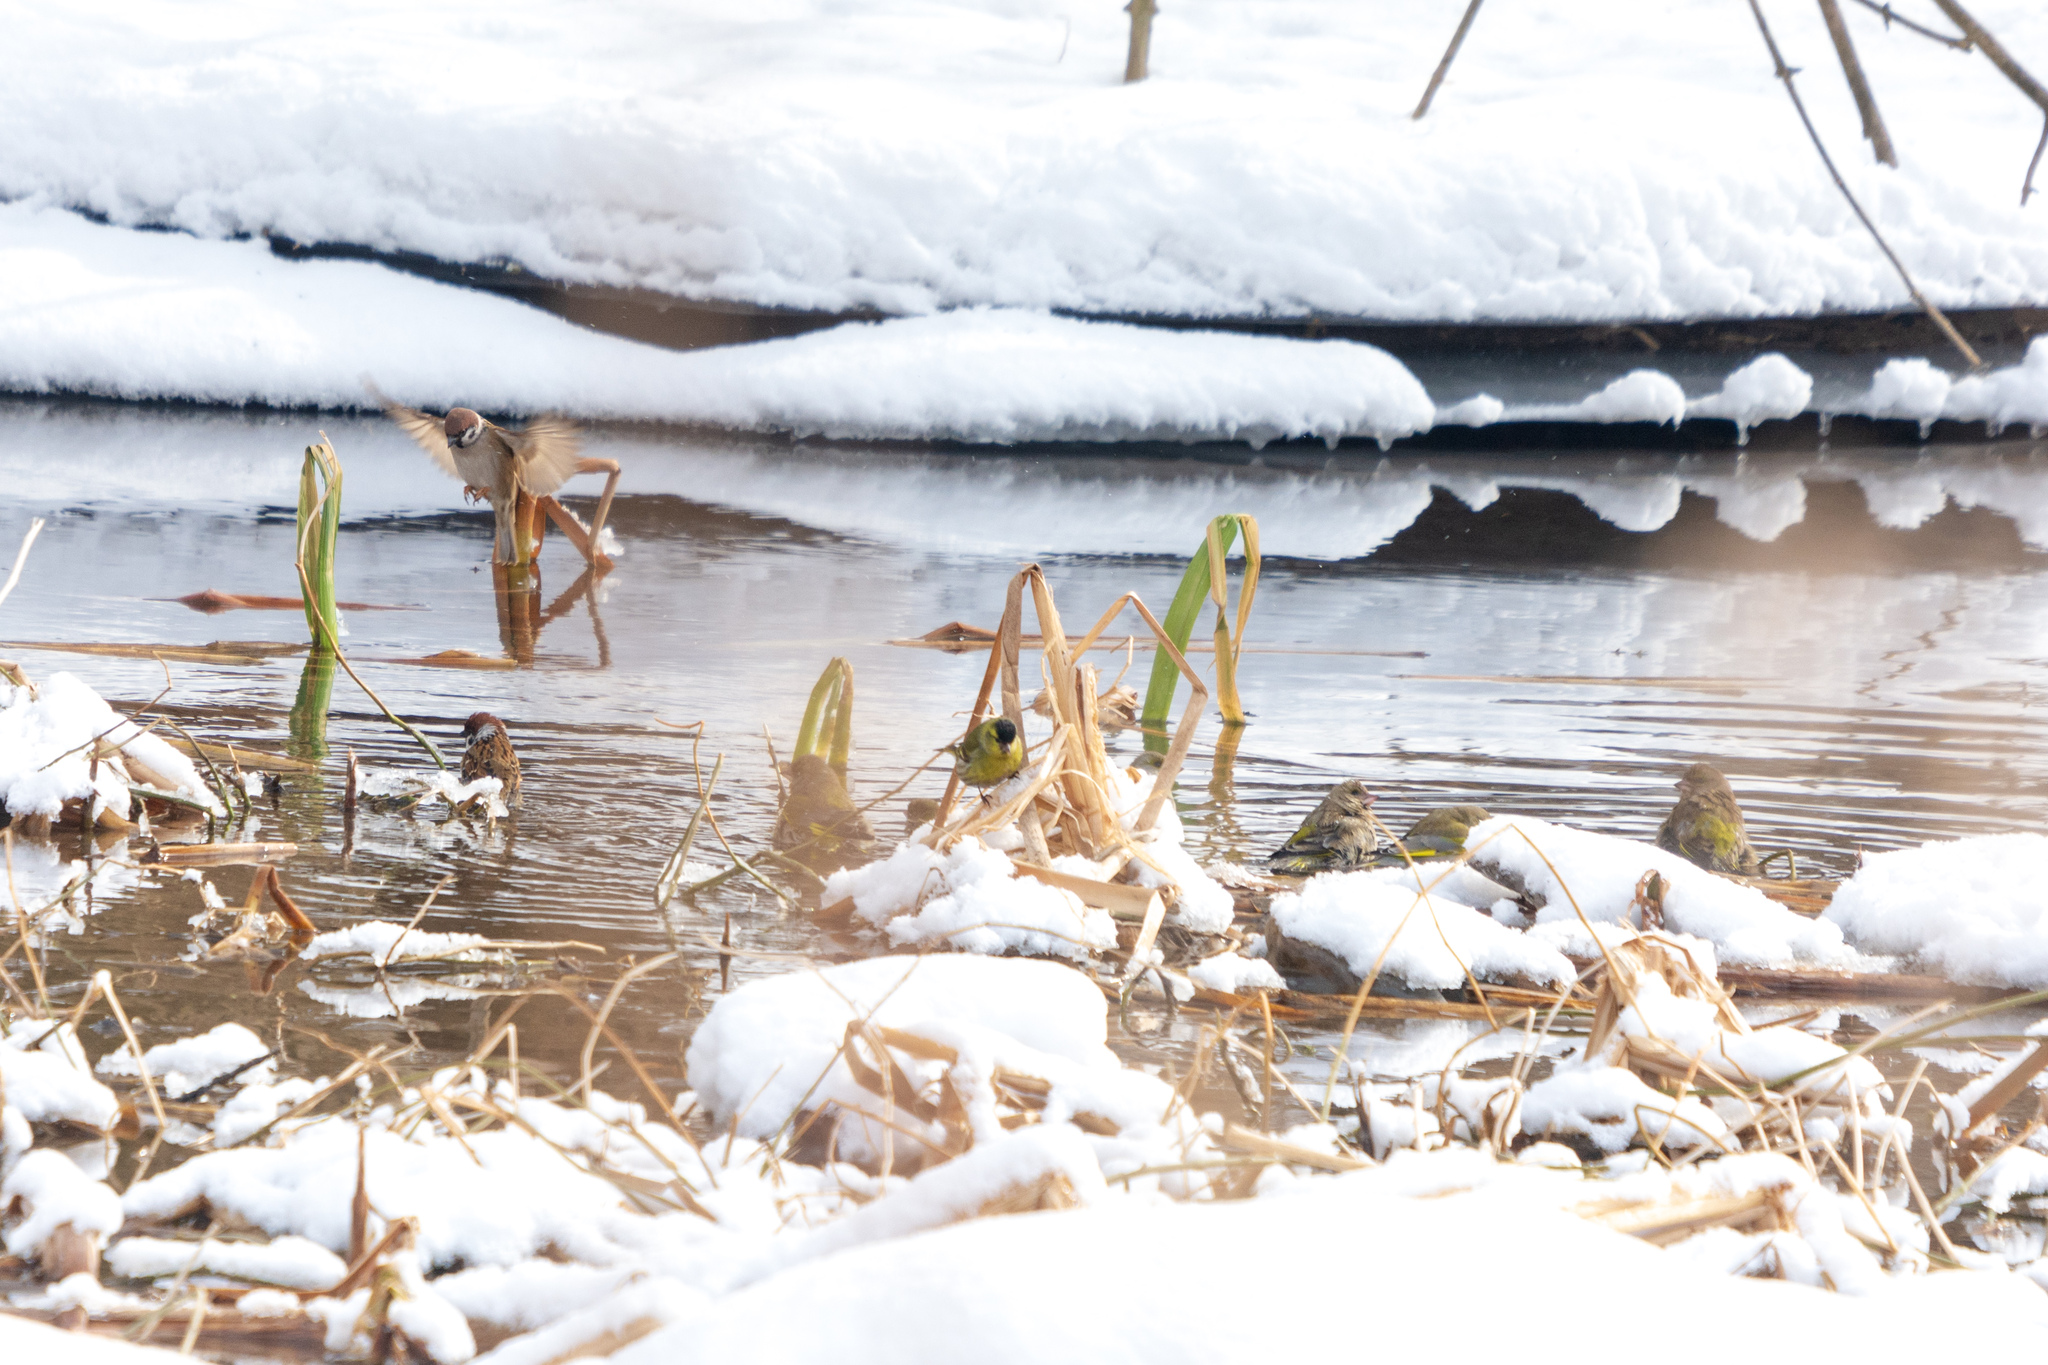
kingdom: Animalia
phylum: Chordata
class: Aves
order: Passeriformes
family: Passeridae
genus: Passer
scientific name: Passer montanus
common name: Eurasian tree sparrow
